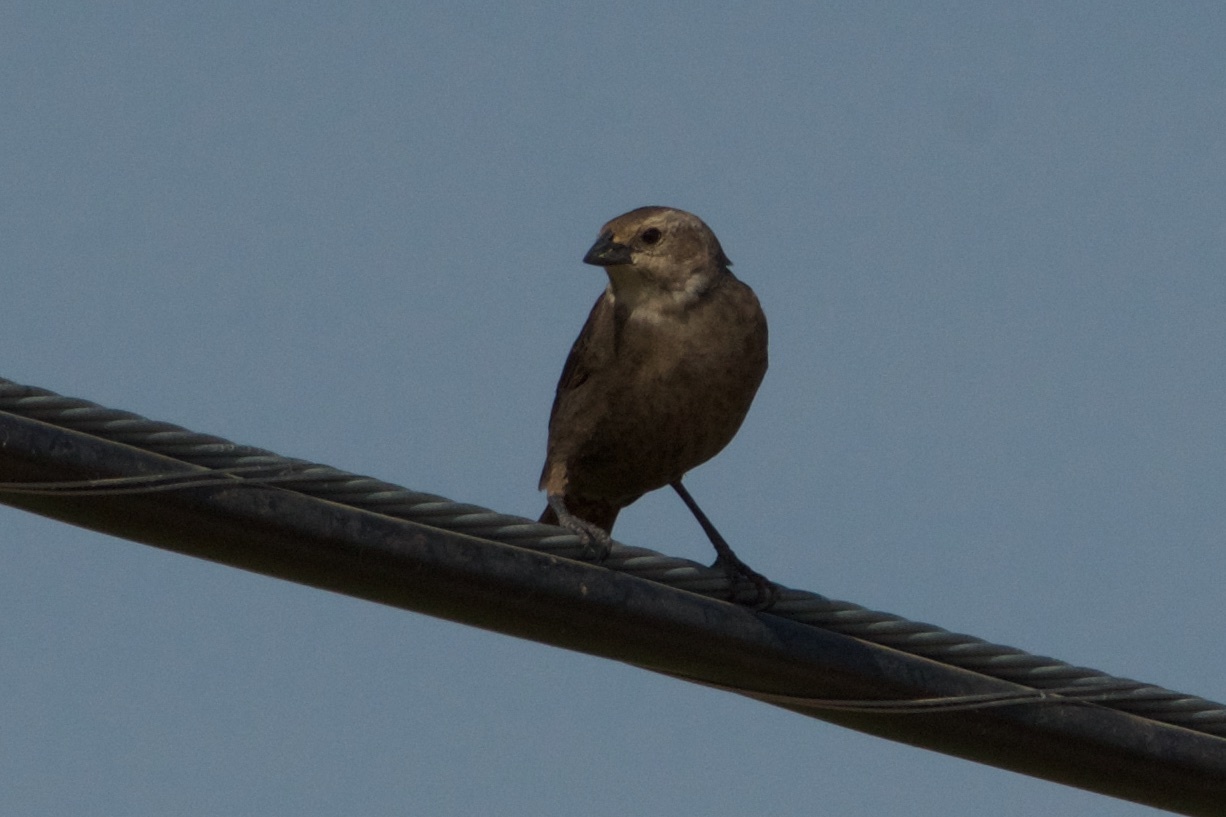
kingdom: Animalia
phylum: Chordata
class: Aves
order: Passeriformes
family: Icteridae
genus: Molothrus
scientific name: Molothrus ater
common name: Brown-headed cowbird
